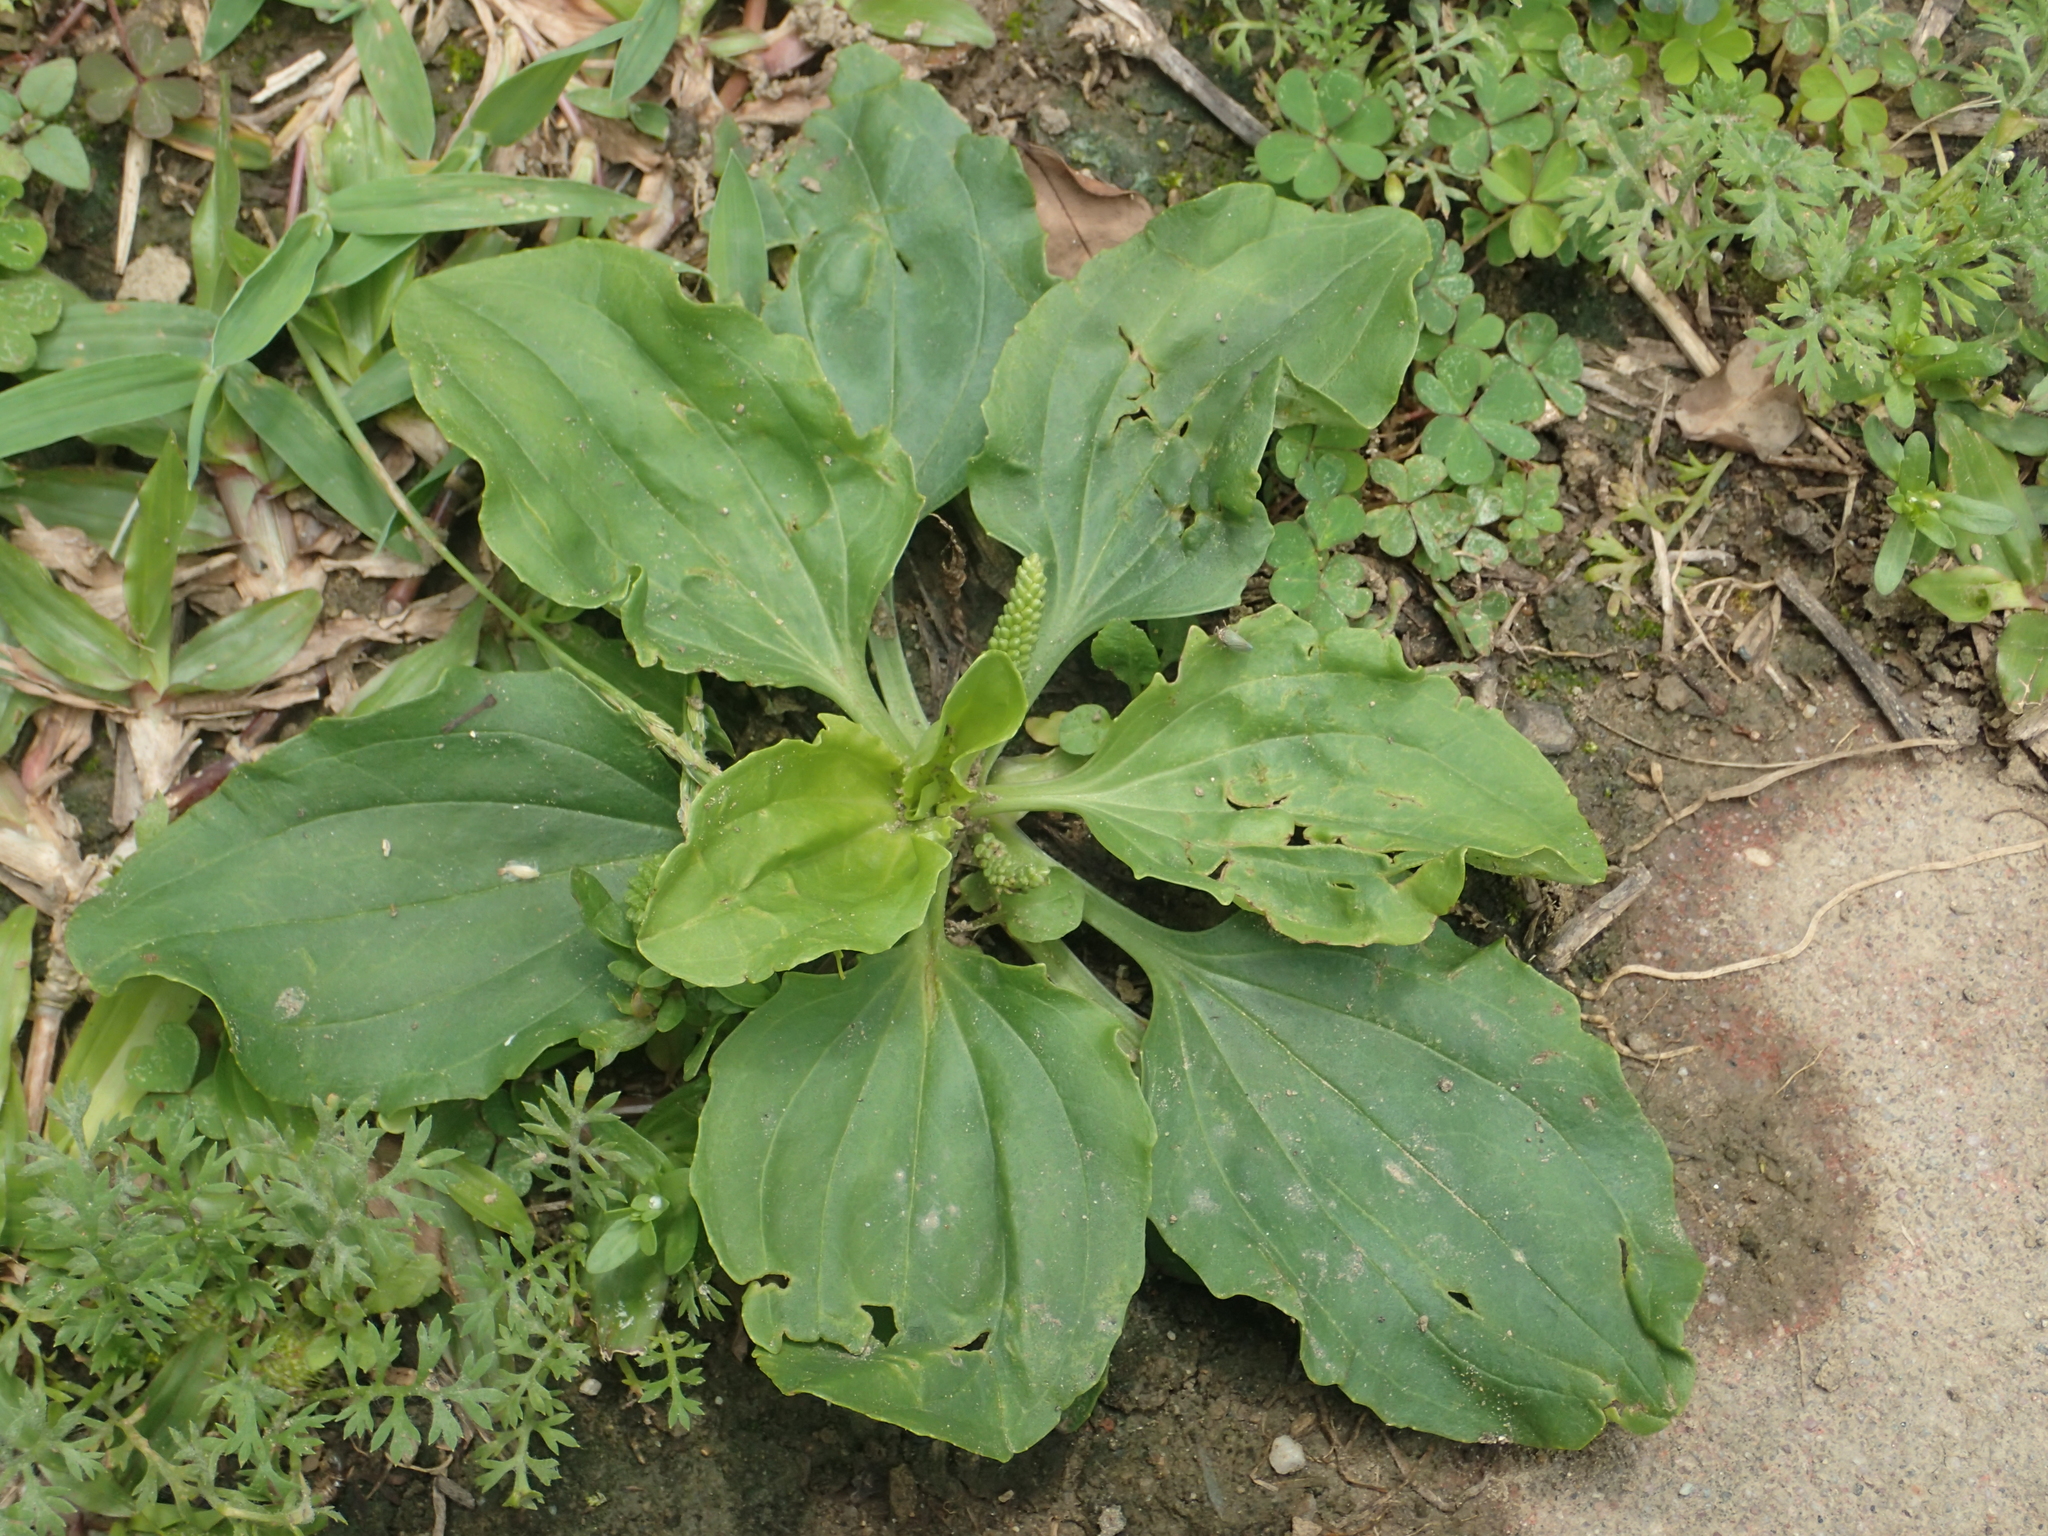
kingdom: Plantae
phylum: Tracheophyta
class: Magnoliopsida
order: Lamiales
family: Plantaginaceae
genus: Plantago
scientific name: Plantago asiatica
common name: Psyllium
